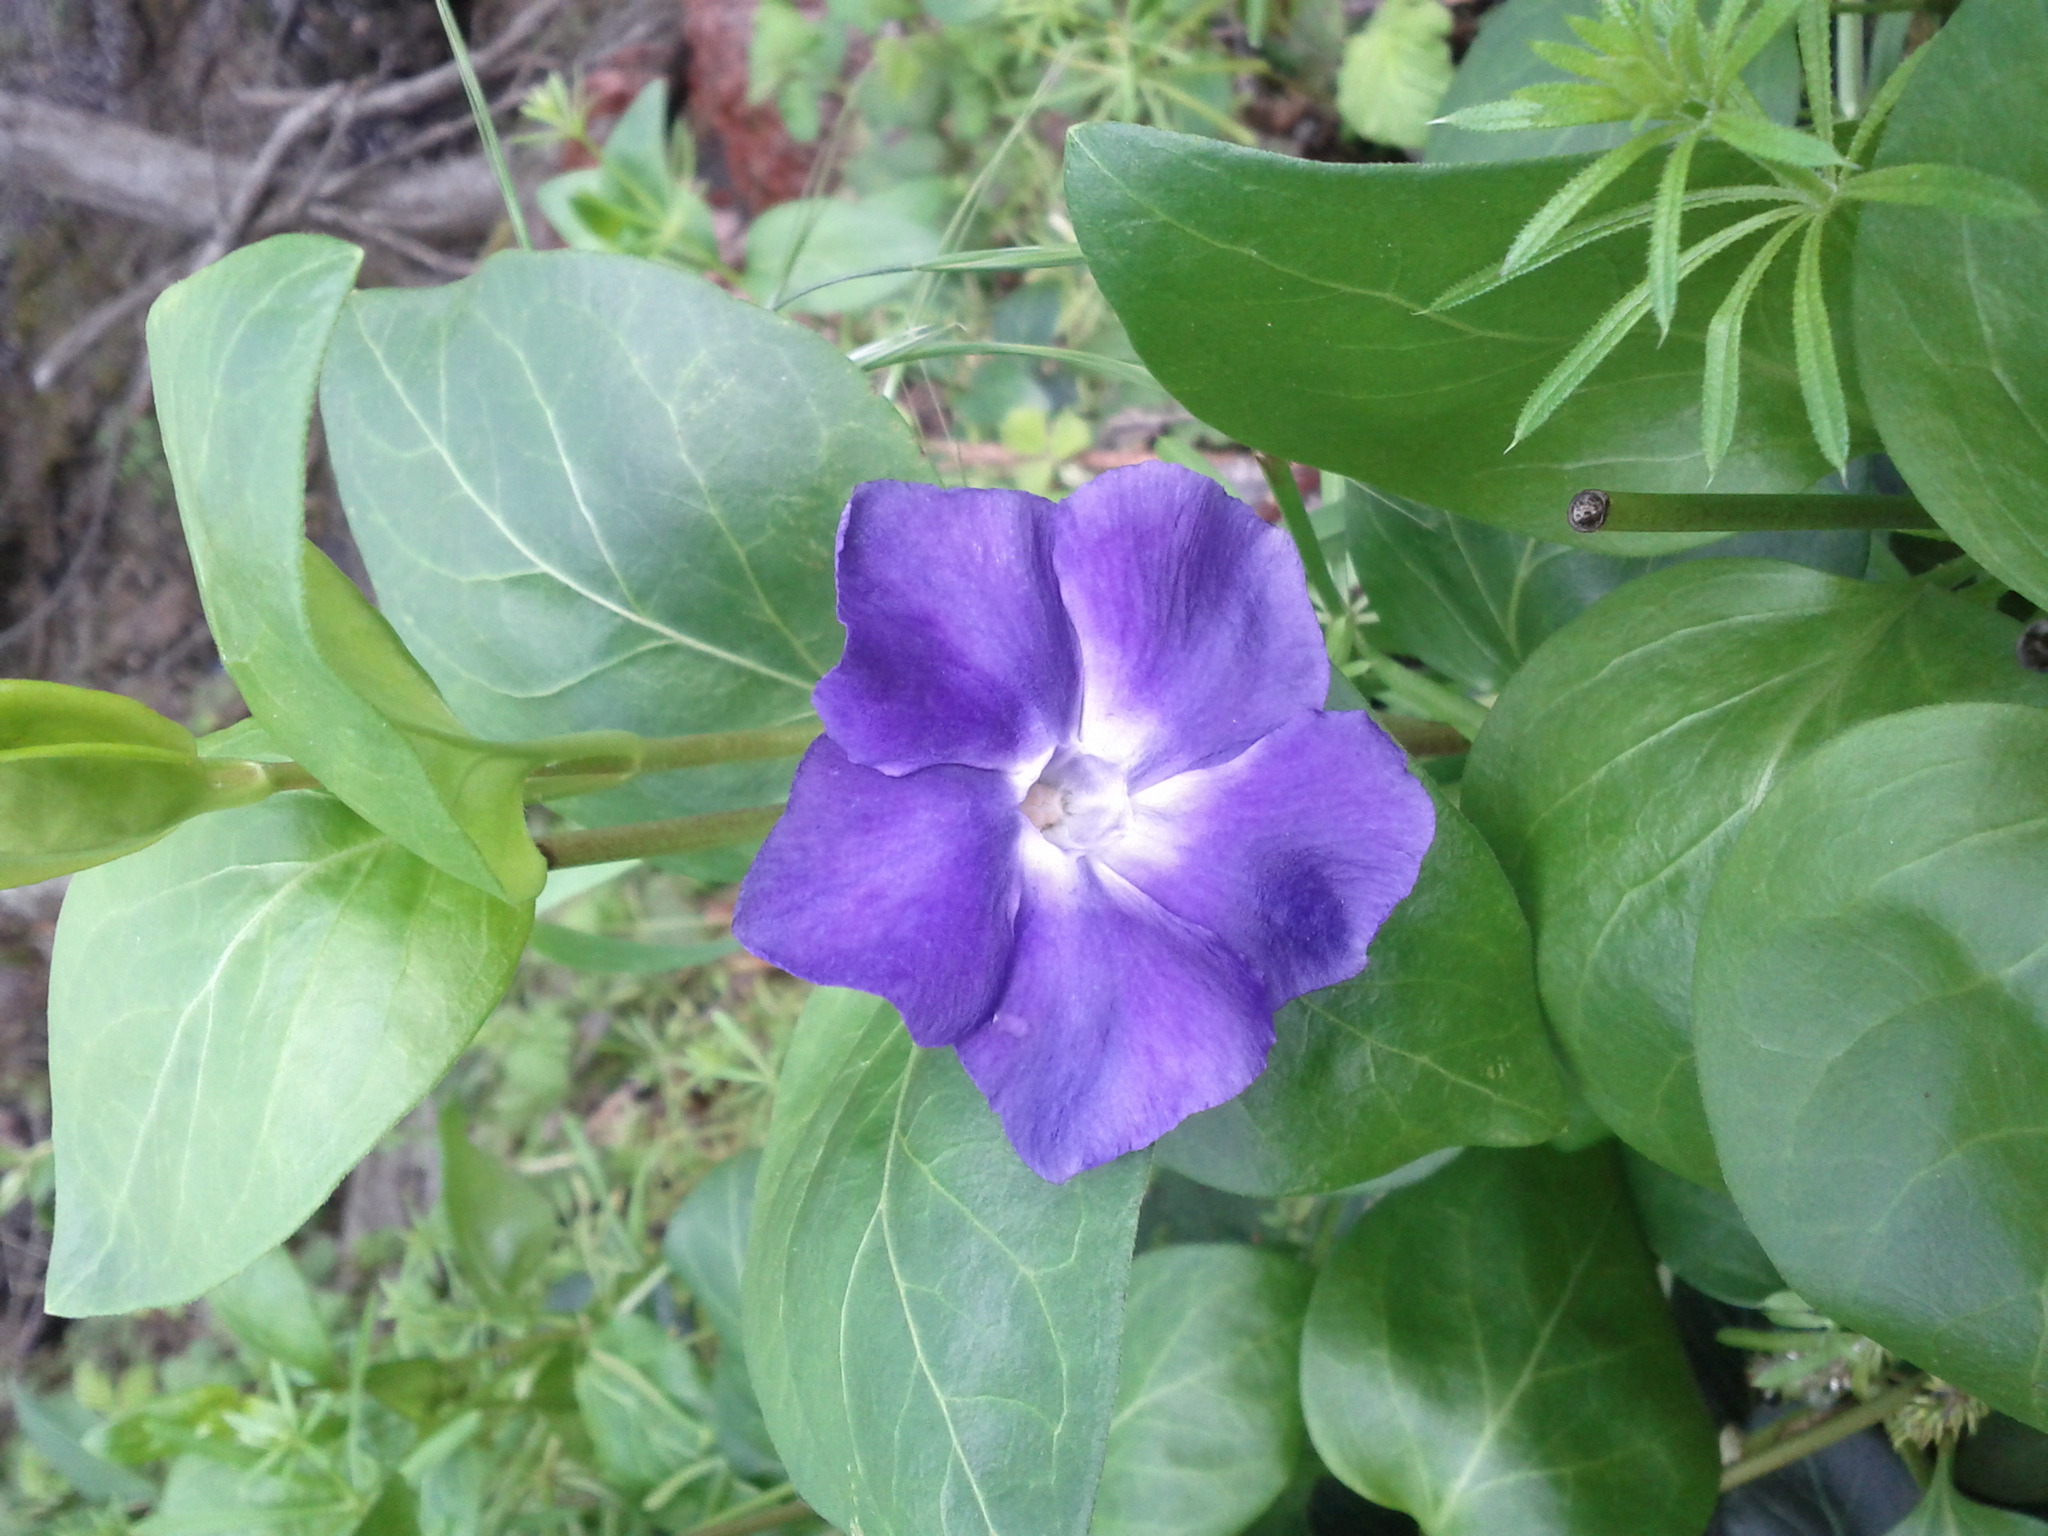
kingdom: Plantae
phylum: Tracheophyta
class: Magnoliopsida
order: Gentianales
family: Apocynaceae
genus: Vinca
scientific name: Vinca major
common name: Greater periwinkle
